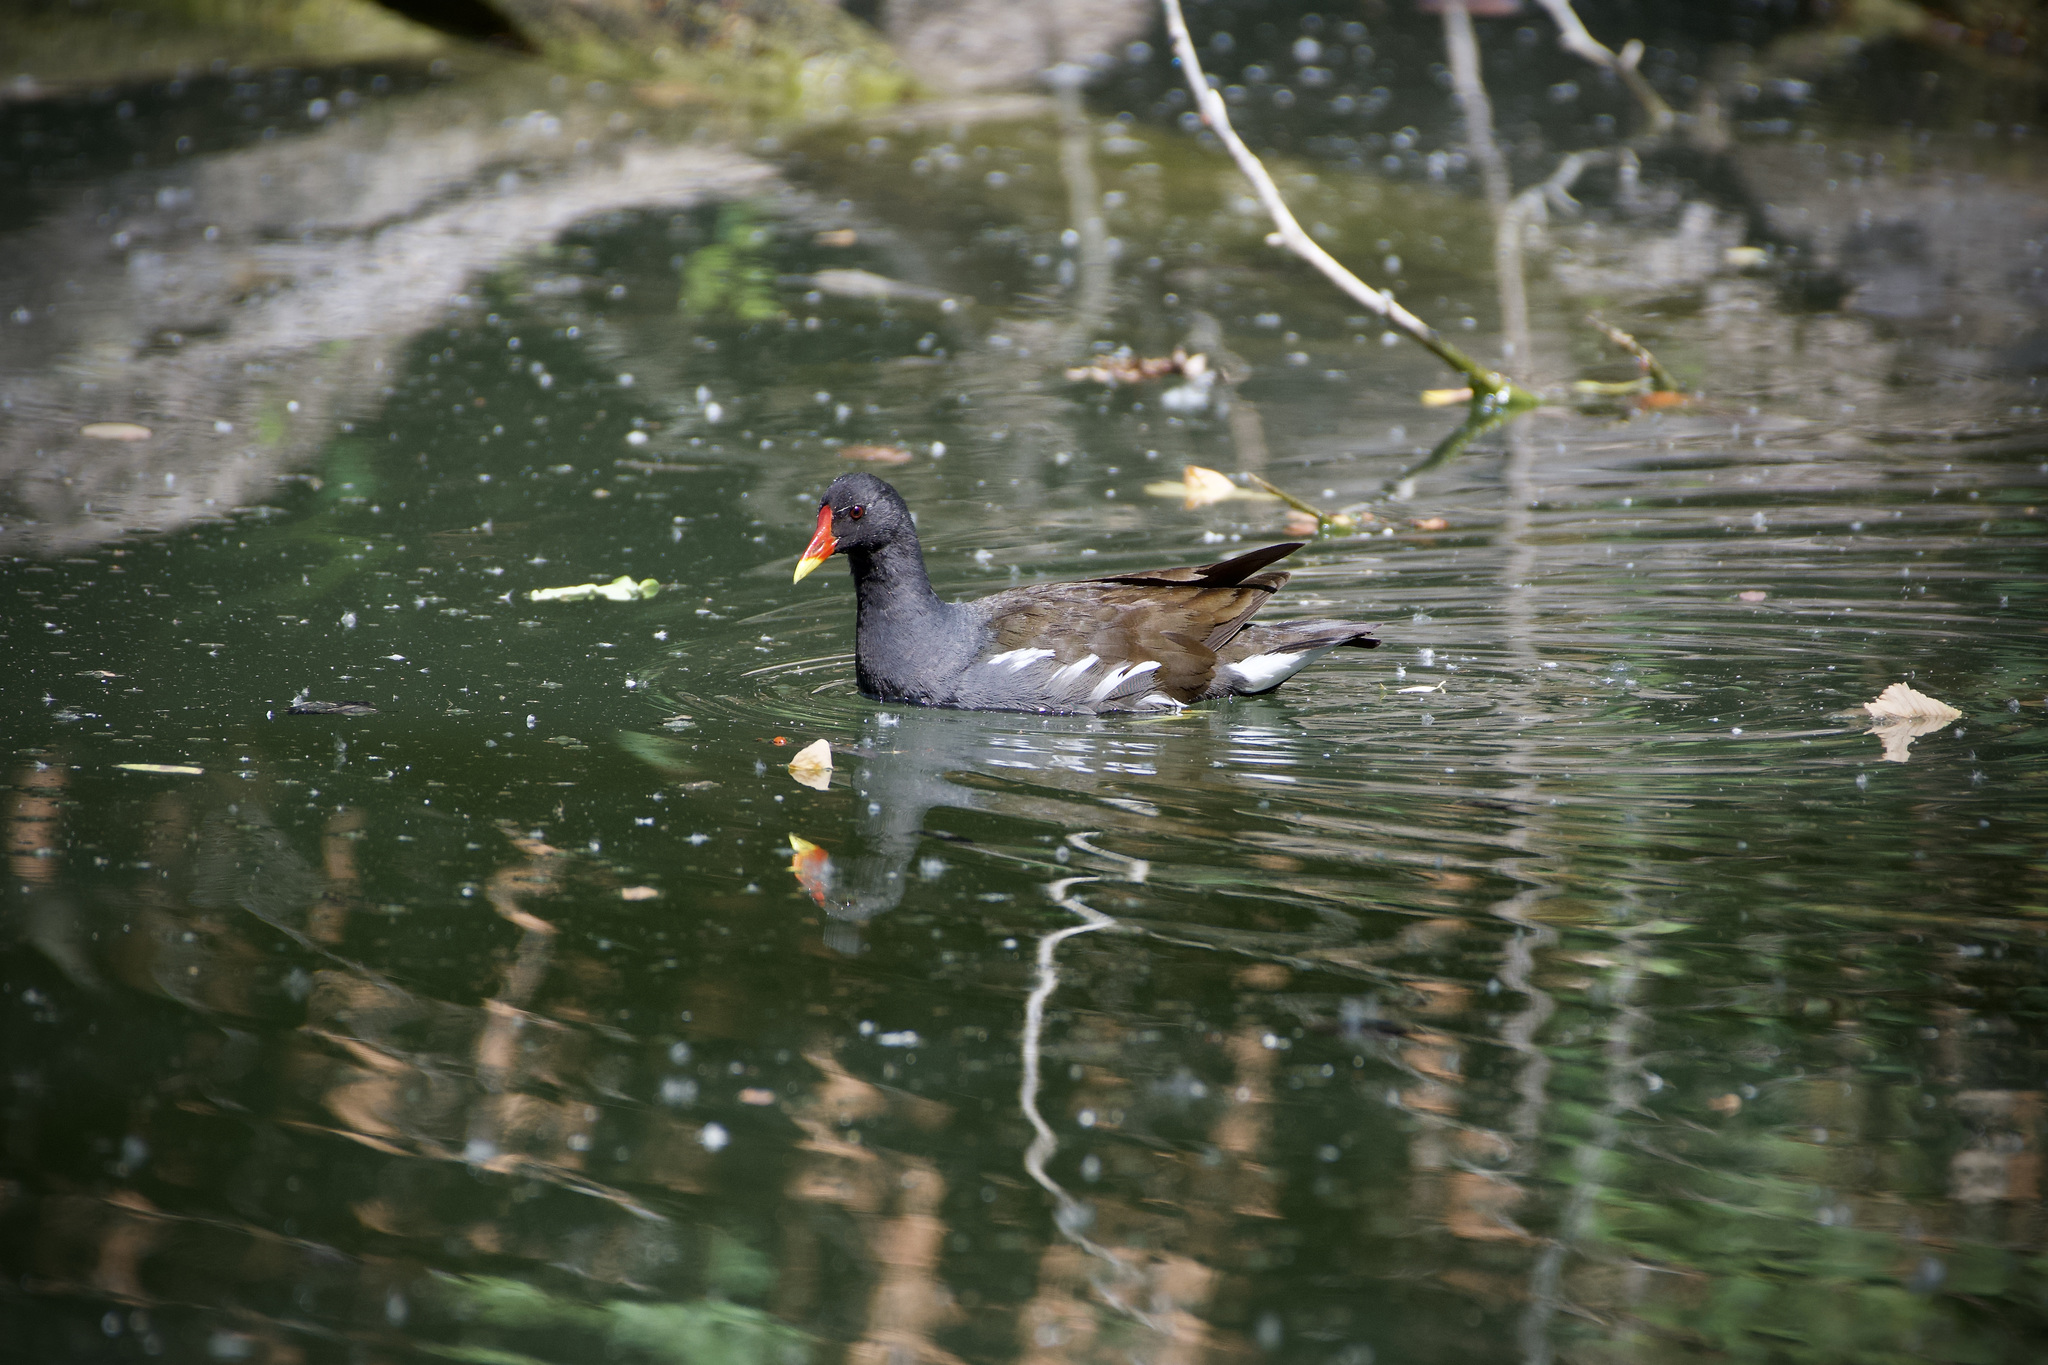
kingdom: Animalia
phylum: Chordata
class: Aves
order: Gruiformes
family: Rallidae
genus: Gallinula
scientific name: Gallinula chloropus
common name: Common moorhen
